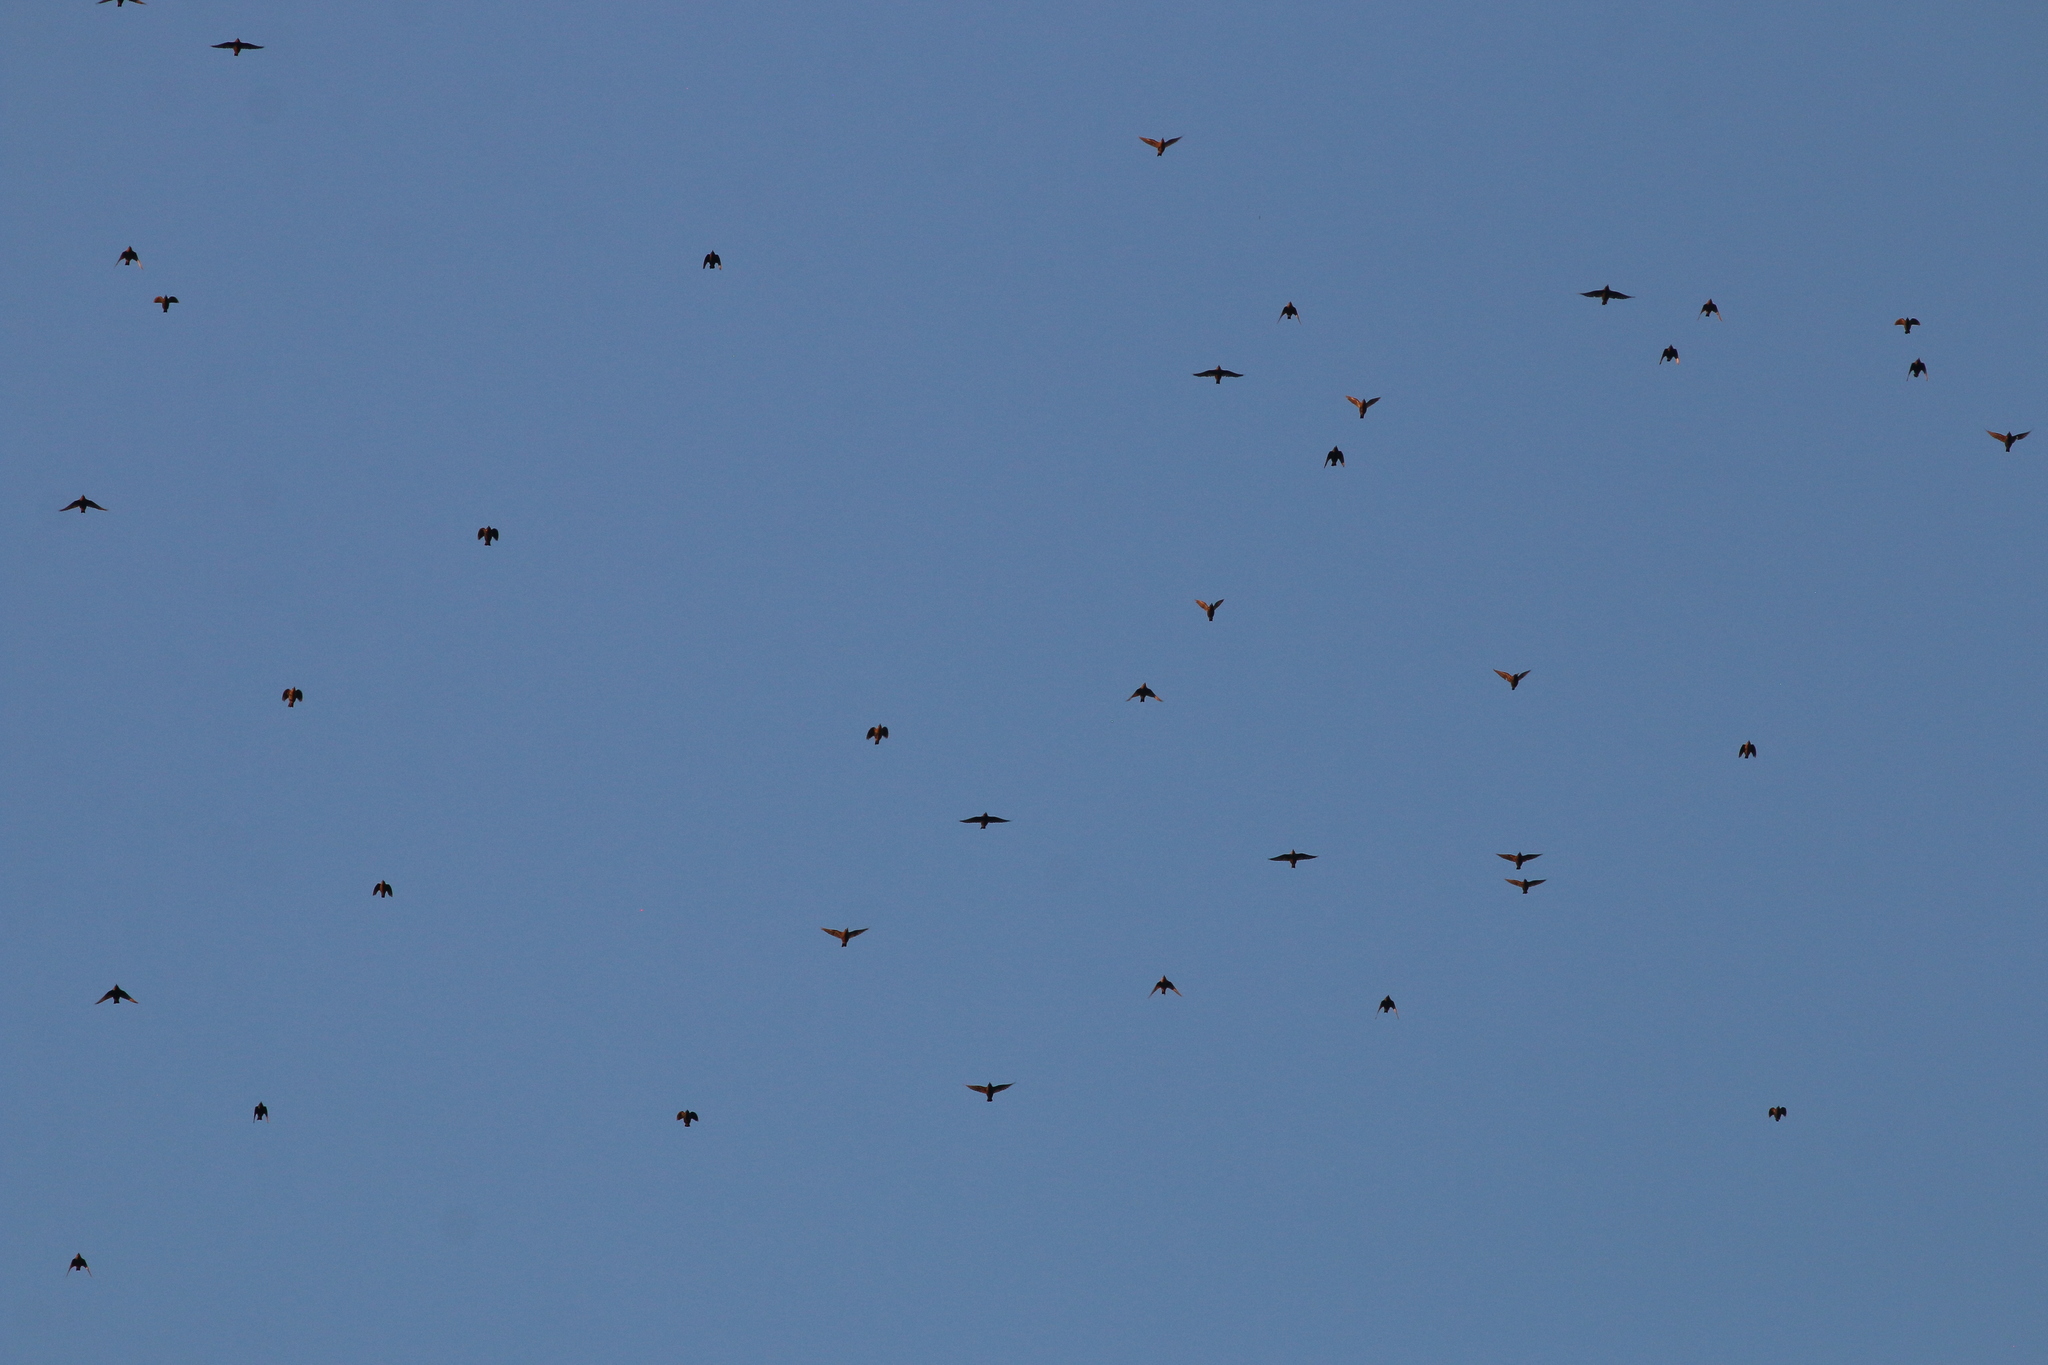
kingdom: Animalia
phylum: Chordata
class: Aves
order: Passeriformes
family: Sturnidae
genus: Sturnus
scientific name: Sturnus vulgaris
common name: Common starling
